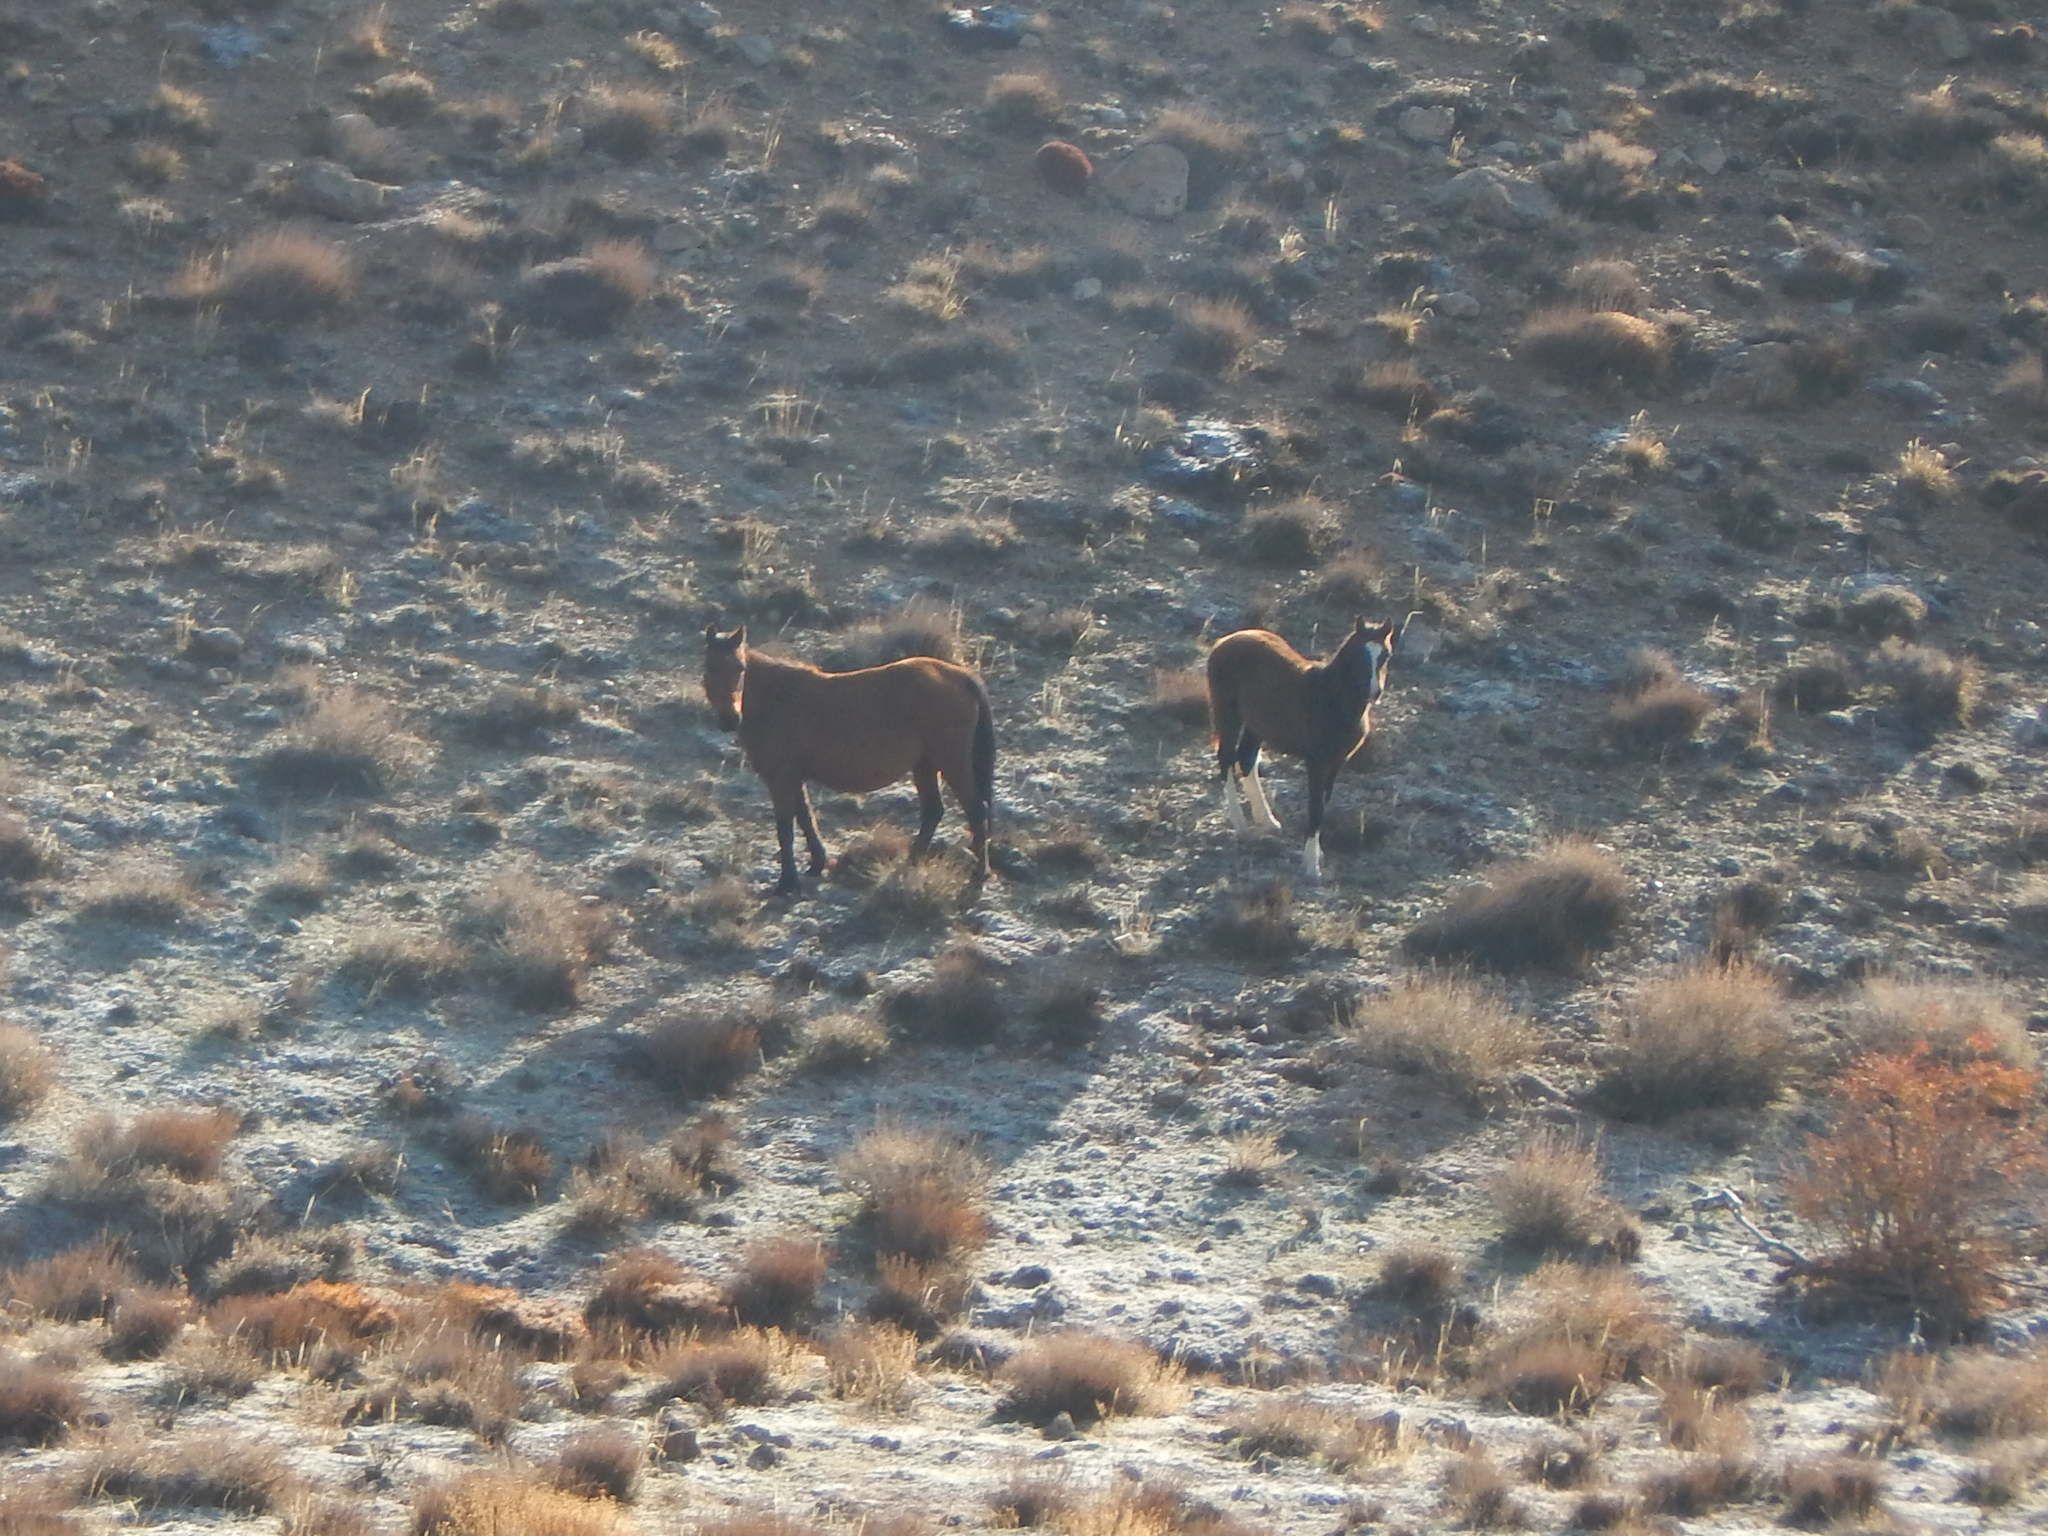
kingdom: Animalia
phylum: Chordata
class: Mammalia
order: Perissodactyla
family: Equidae
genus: Equus
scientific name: Equus caballus
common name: Horse
